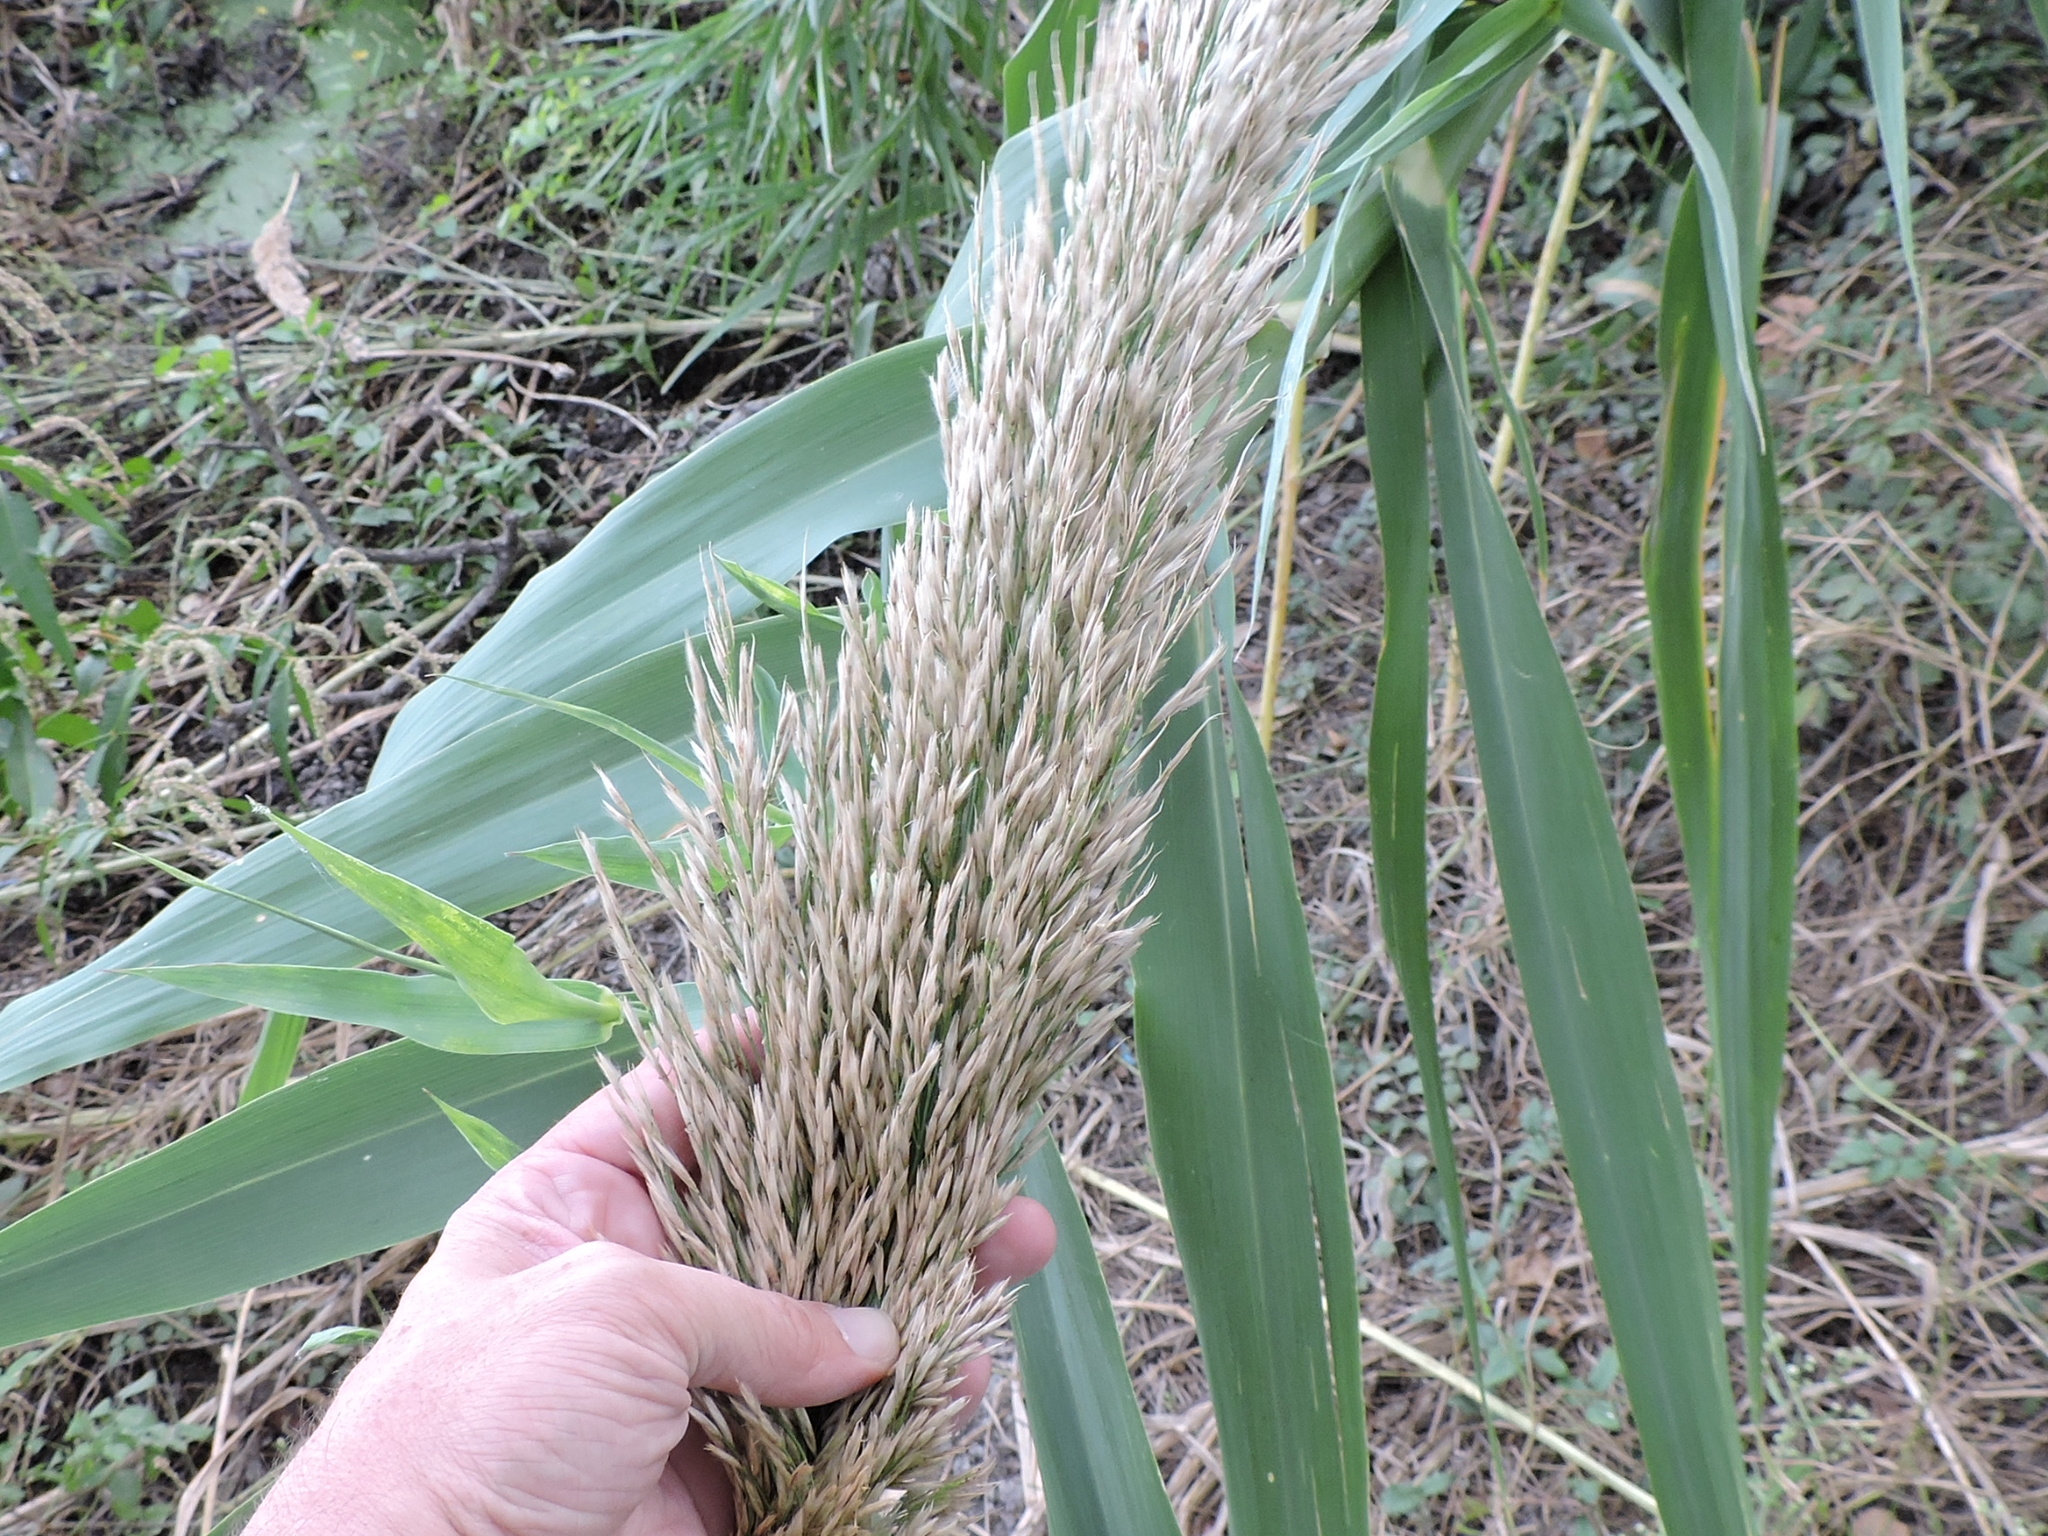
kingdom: Plantae
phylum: Tracheophyta
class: Liliopsida
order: Poales
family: Poaceae
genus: Arundo
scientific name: Arundo donax
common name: Giant reed
